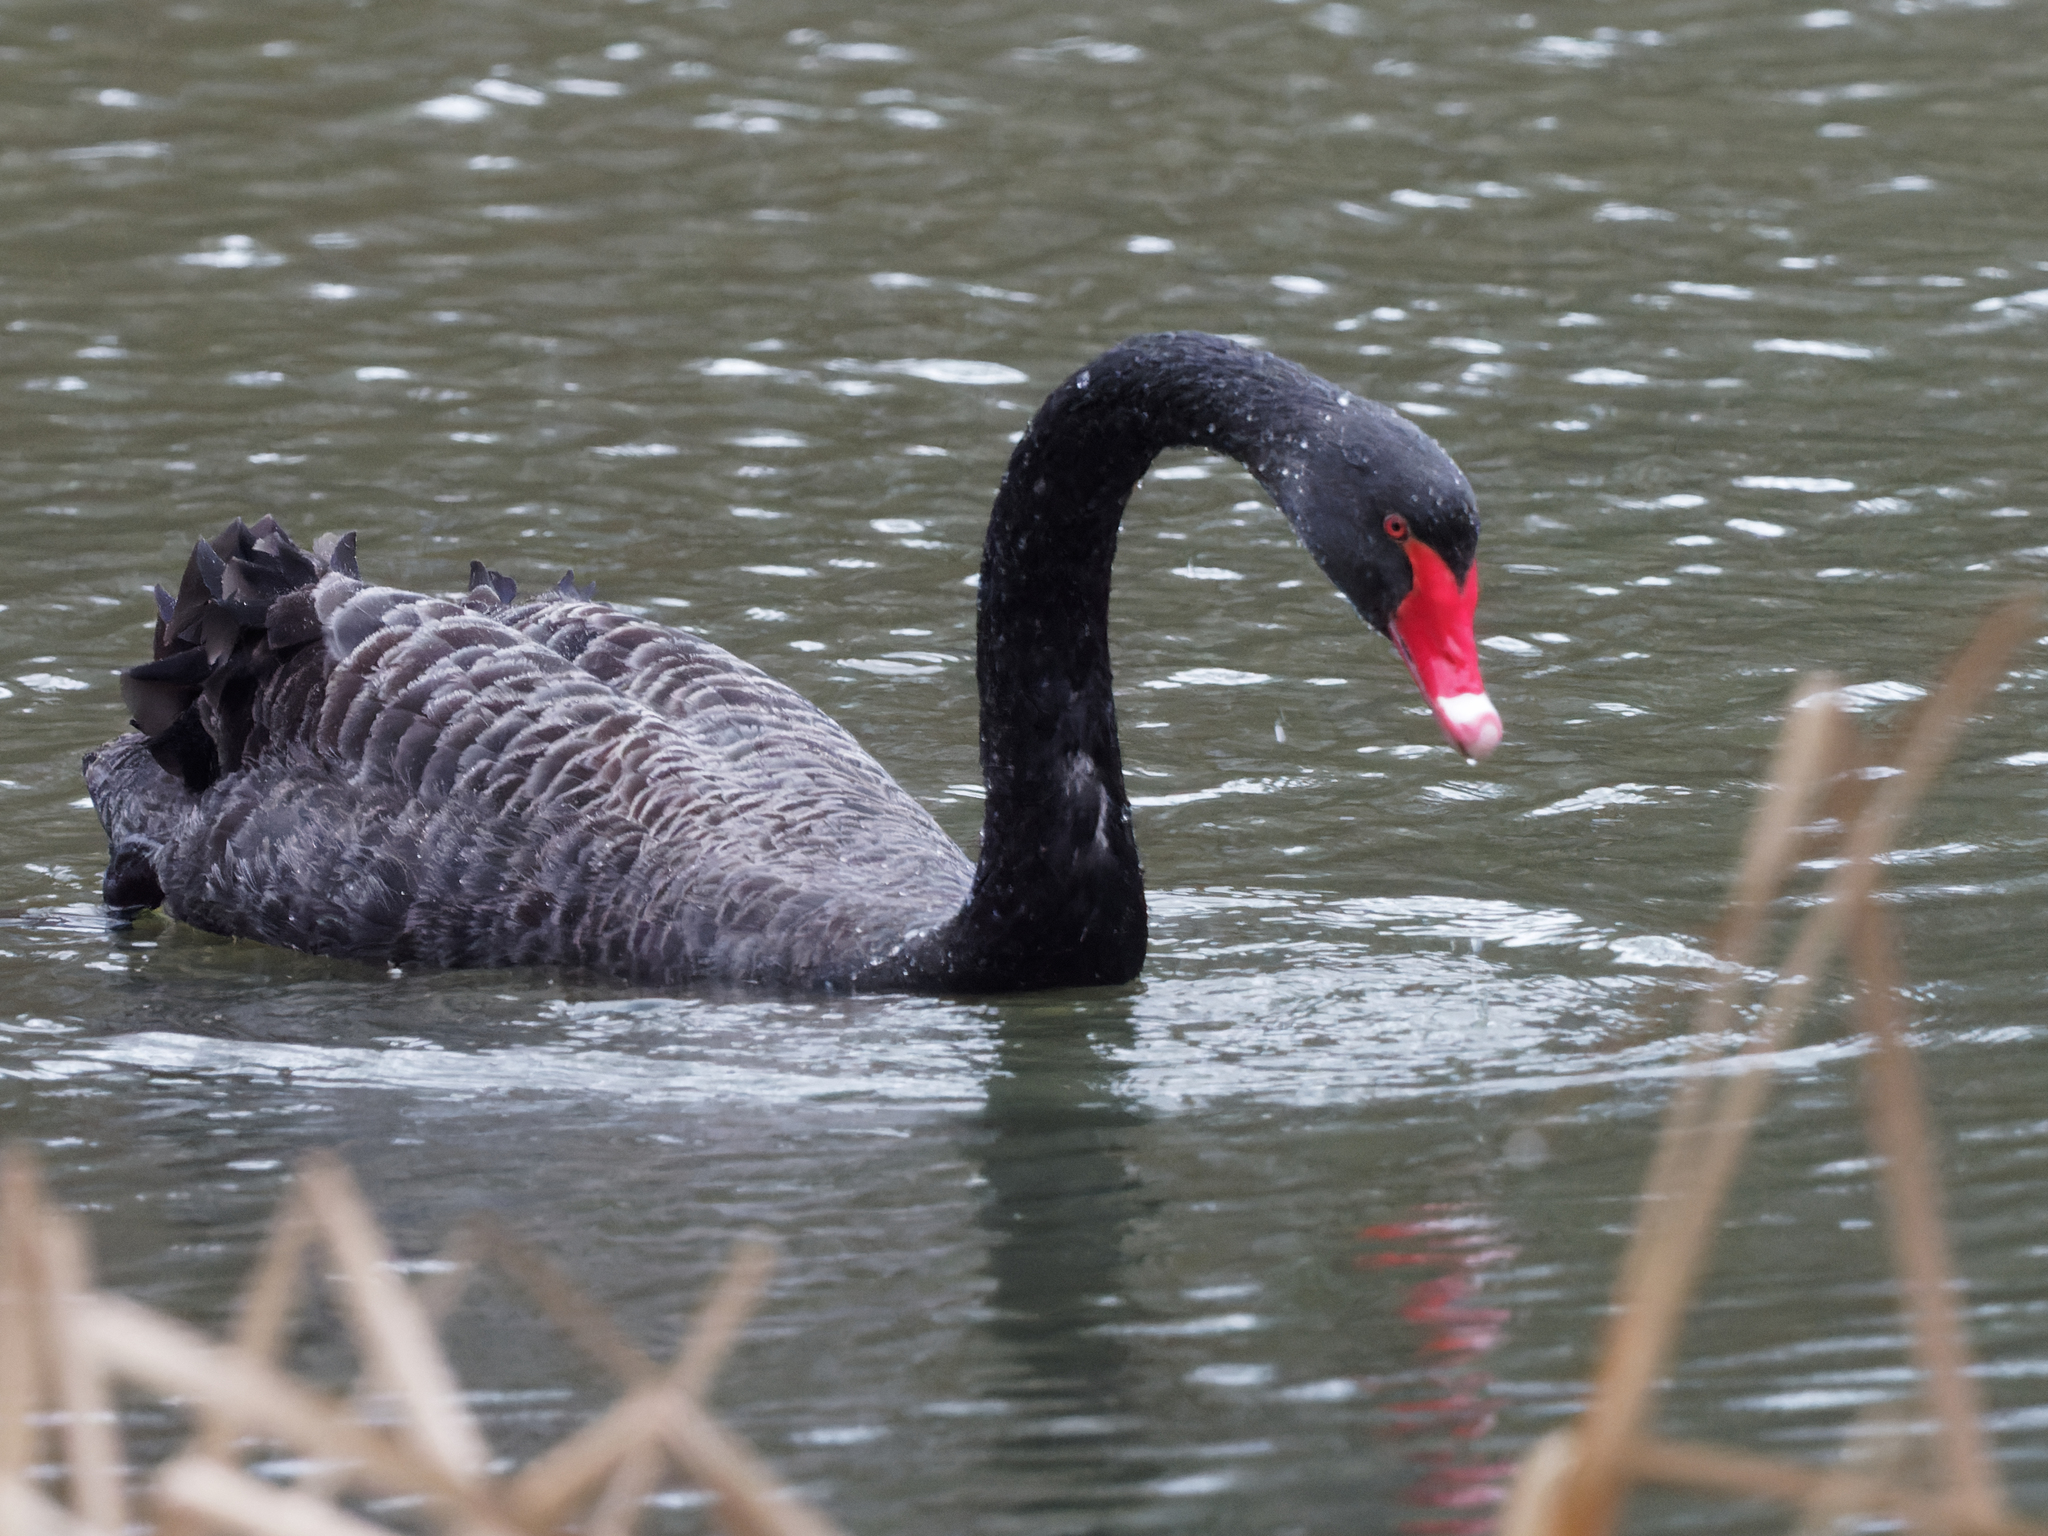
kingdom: Animalia
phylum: Chordata
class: Aves
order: Anseriformes
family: Anatidae
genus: Cygnus
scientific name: Cygnus atratus
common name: Black swan
